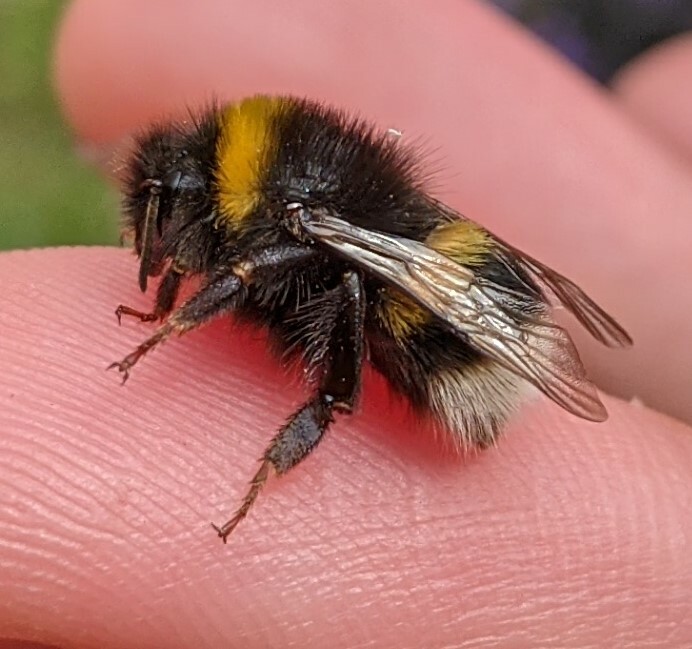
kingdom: Animalia
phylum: Arthropoda
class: Insecta
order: Hymenoptera
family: Apidae
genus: Bombus
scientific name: Bombus terrestris
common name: Buff-tailed bumblebee
